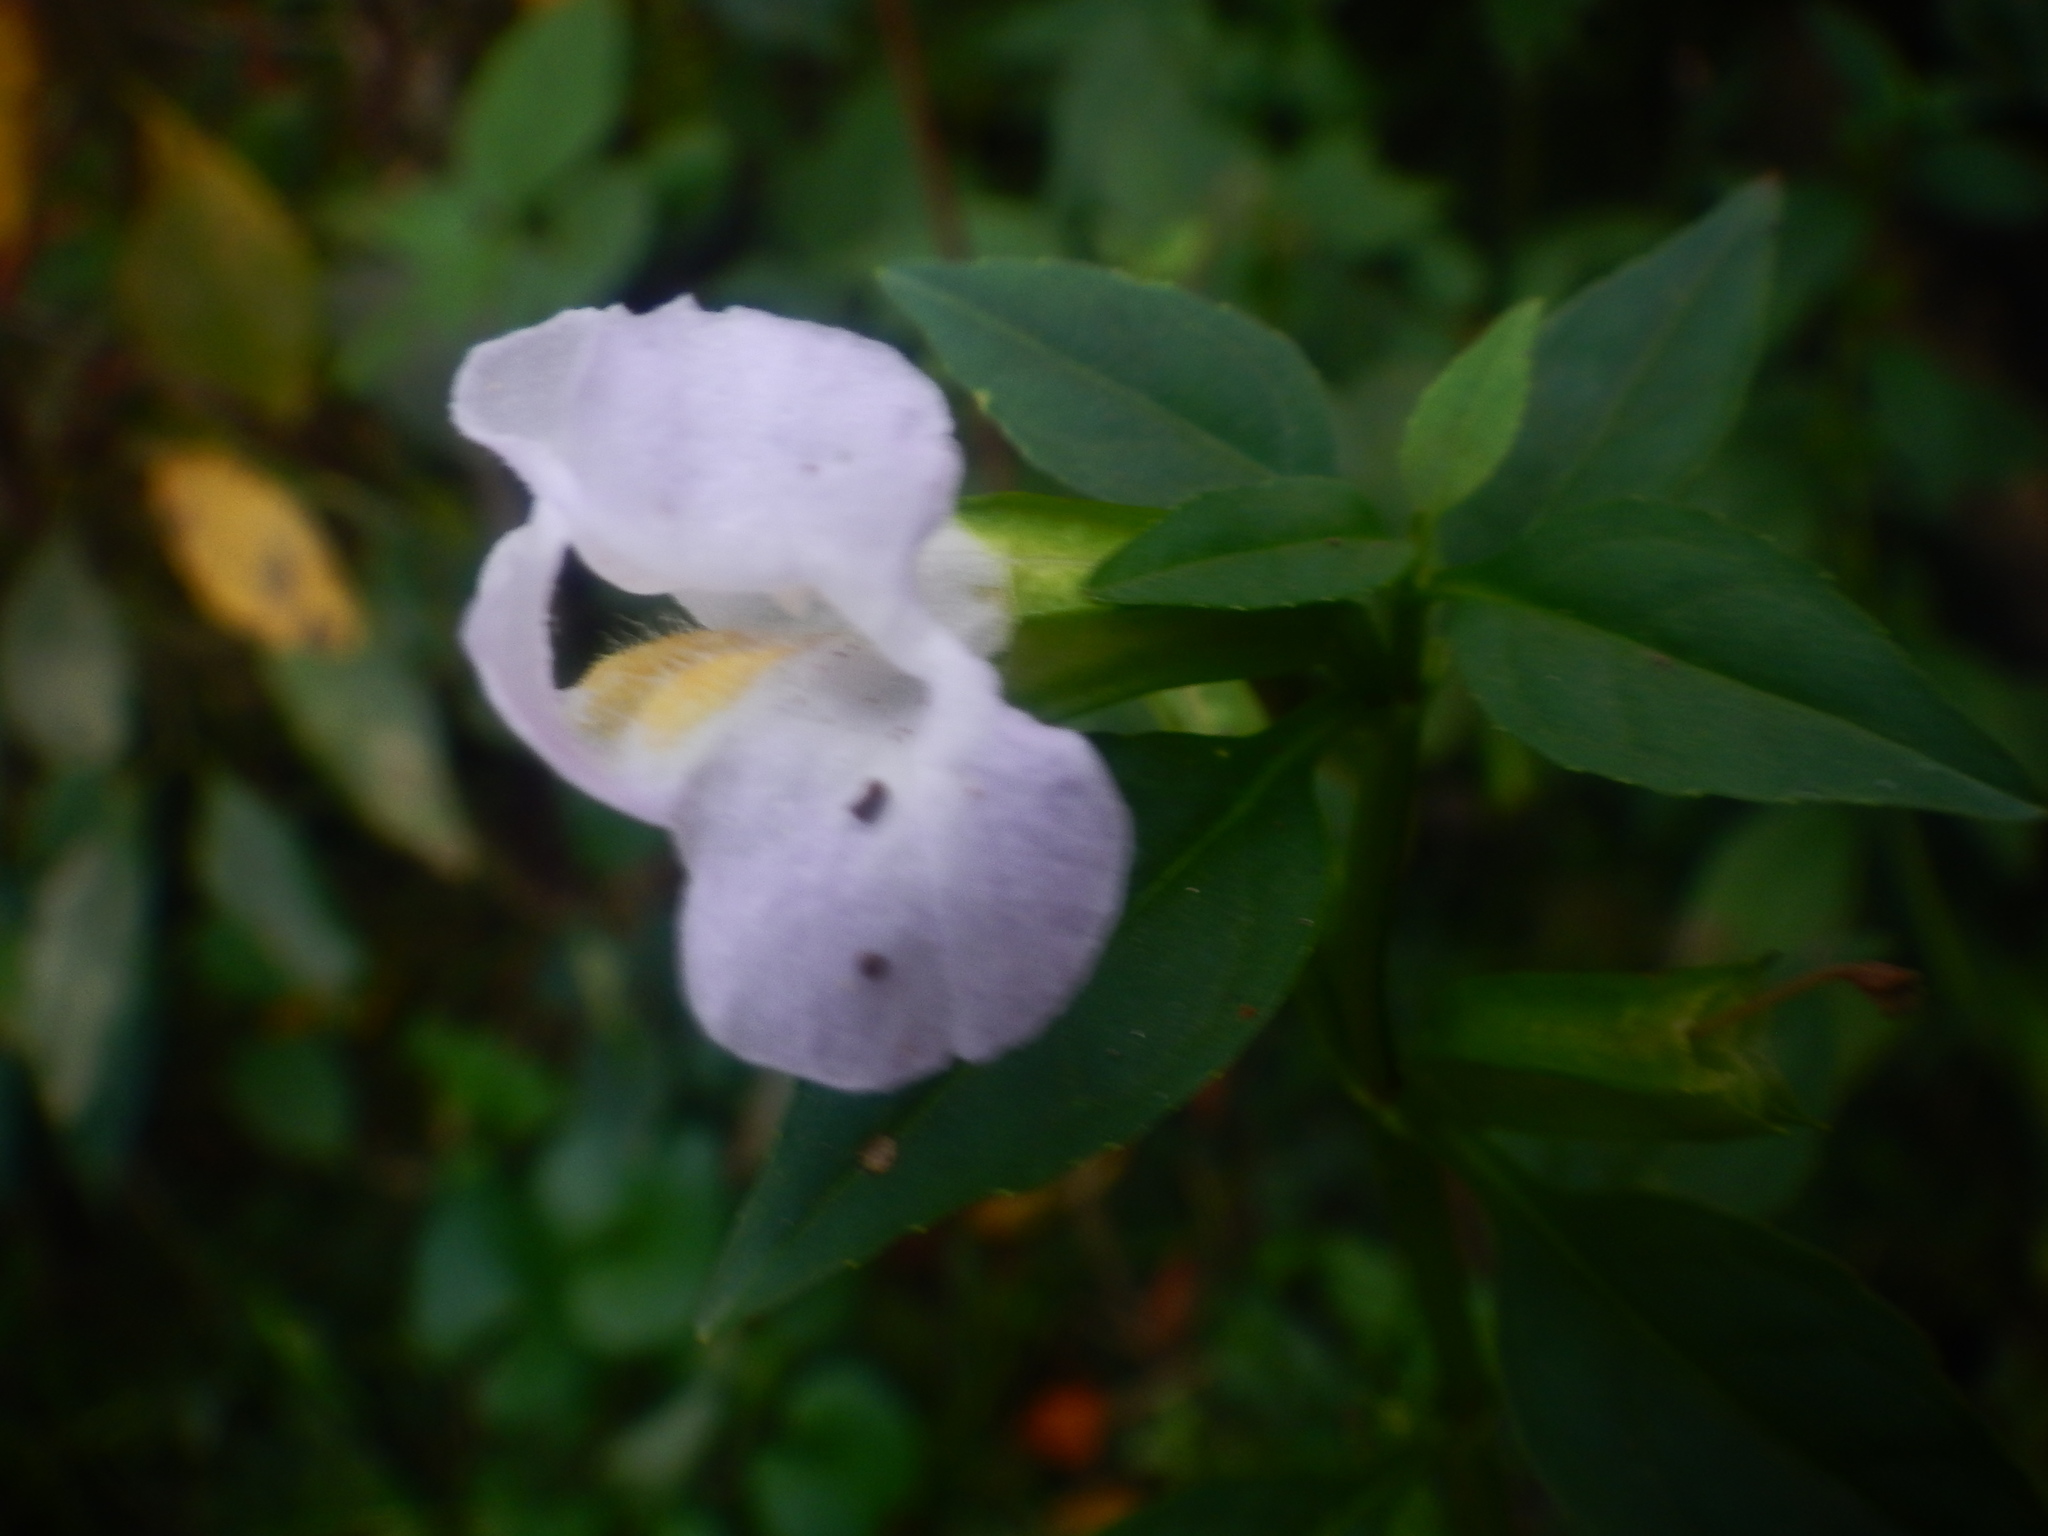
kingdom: Plantae
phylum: Tracheophyta
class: Magnoliopsida
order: Lamiales
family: Phrymaceae
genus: Mimulus
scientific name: Mimulus alatus
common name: Sharp-wing monkey-flower
